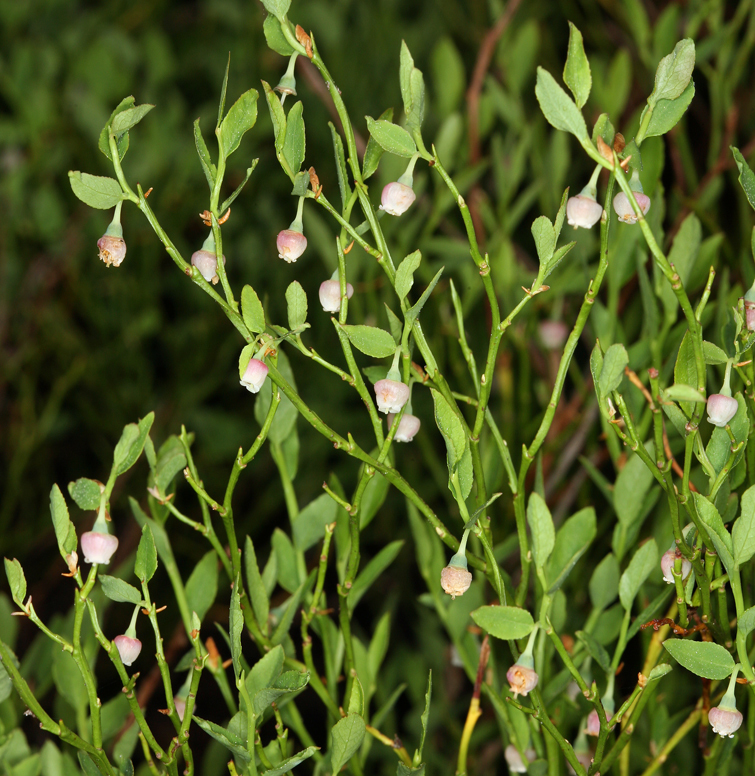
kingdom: Plantae
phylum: Tracheophyta
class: Magnoliopsida
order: Ericales
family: Ericaceae
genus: Vaccinium
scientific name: Vaccinium scoparium
